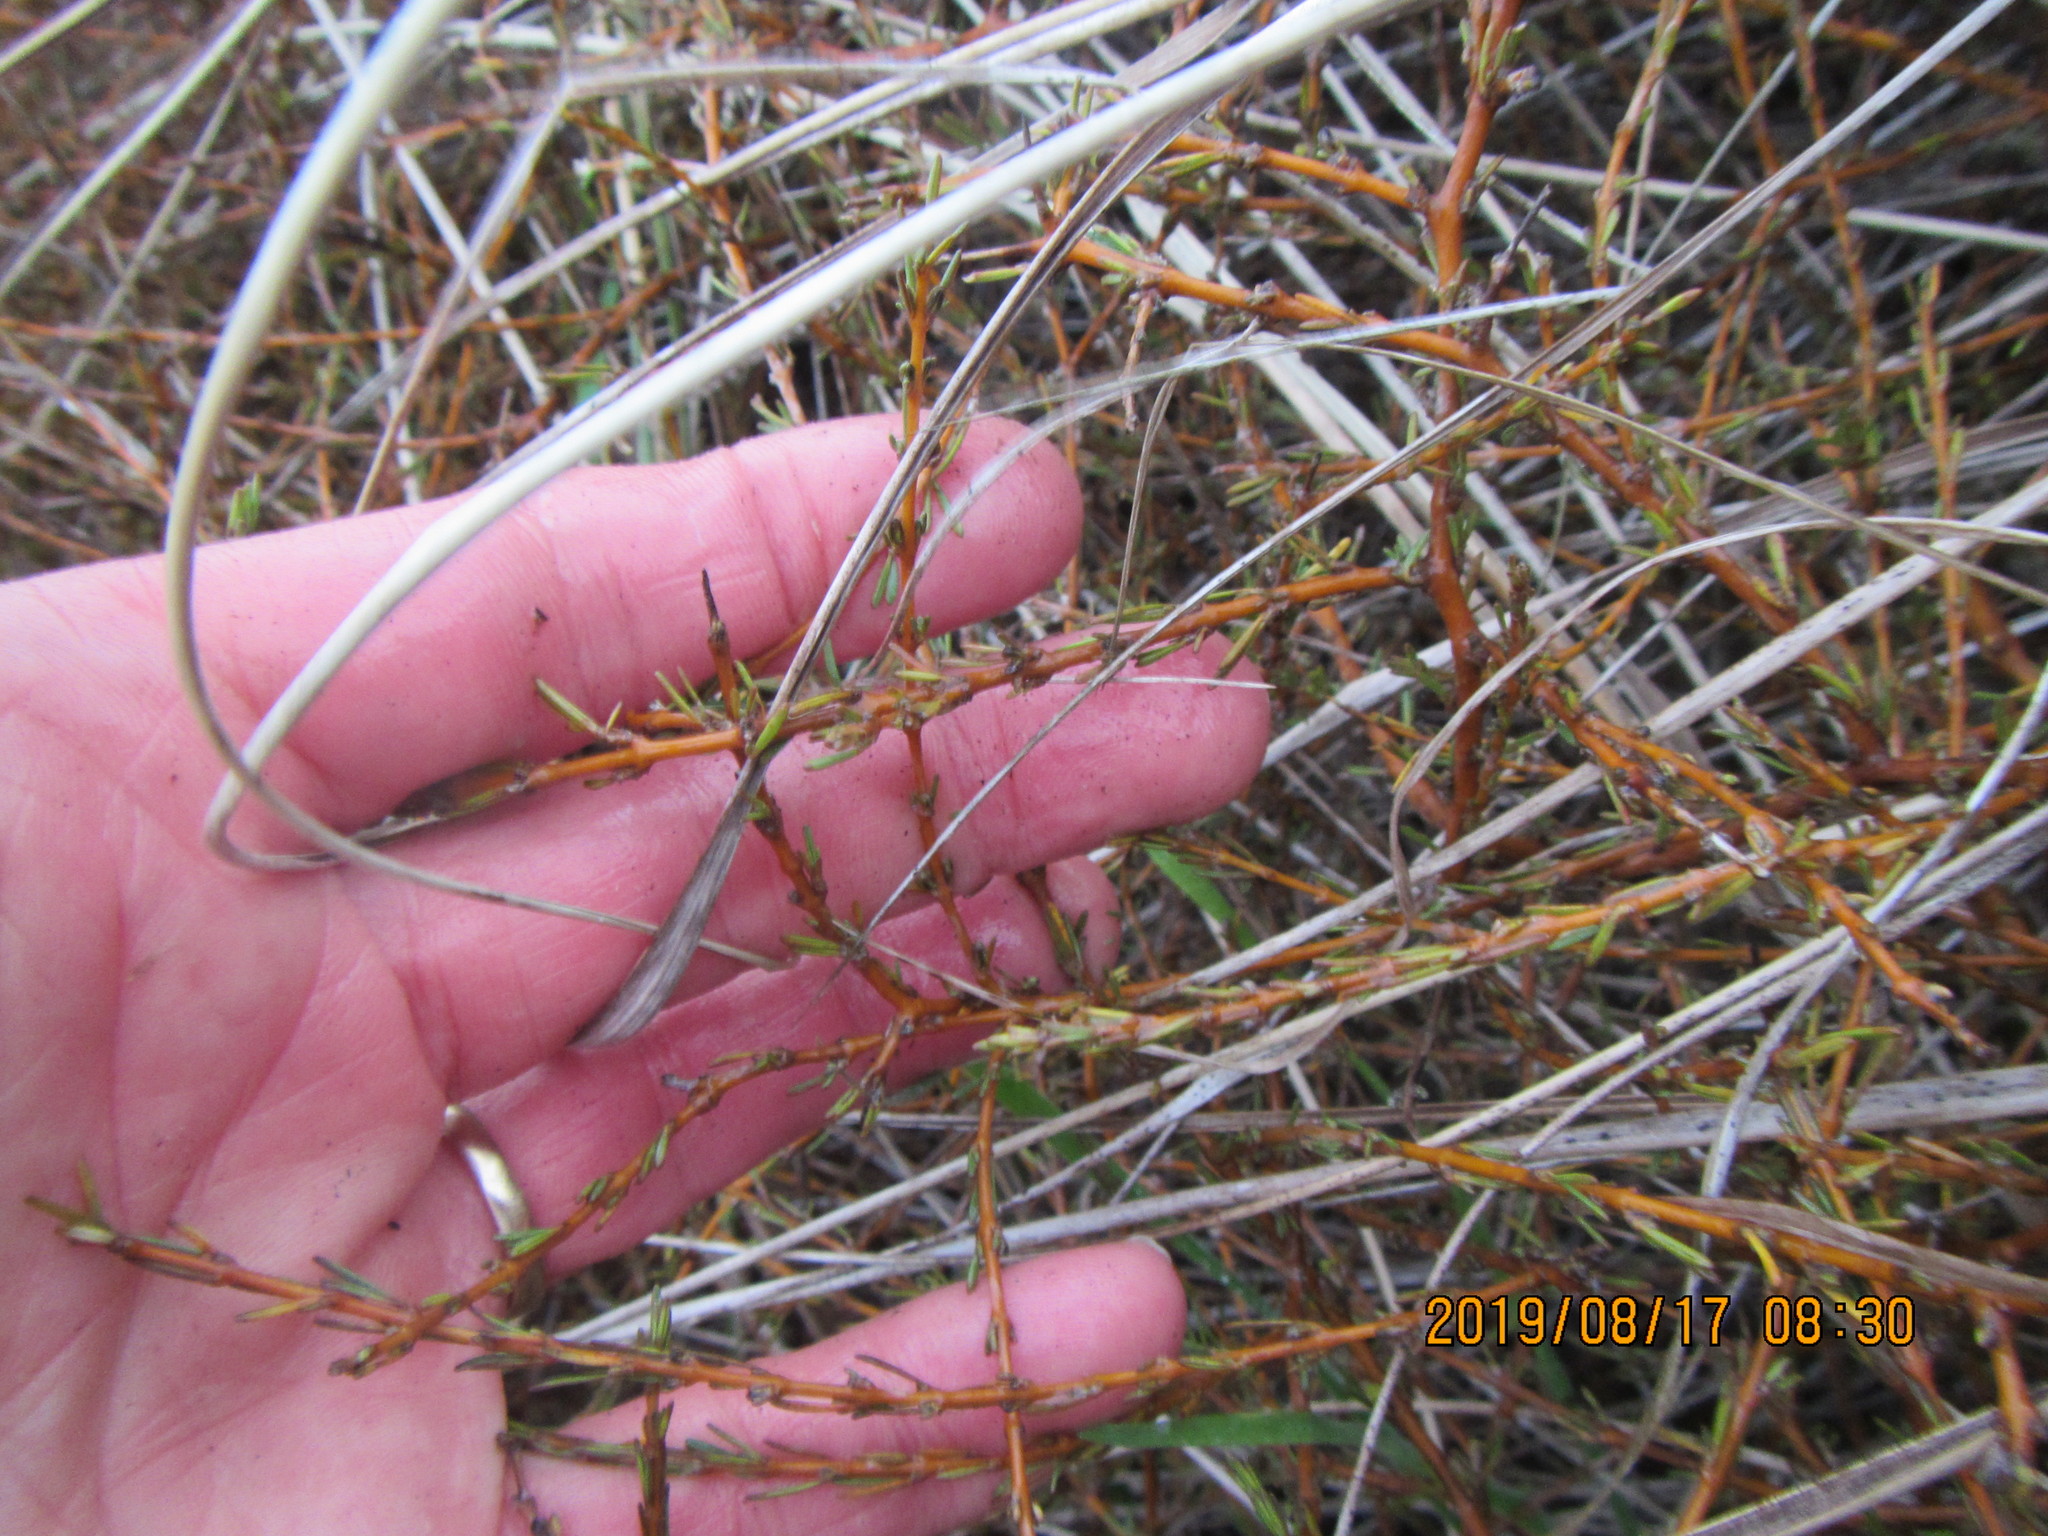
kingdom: Plantae
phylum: Tracheophyta
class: Magnoliopsida
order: Gentianales
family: Rubiaceae
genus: Coprosma
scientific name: Coprosma acerosa
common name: Sand coprosma
